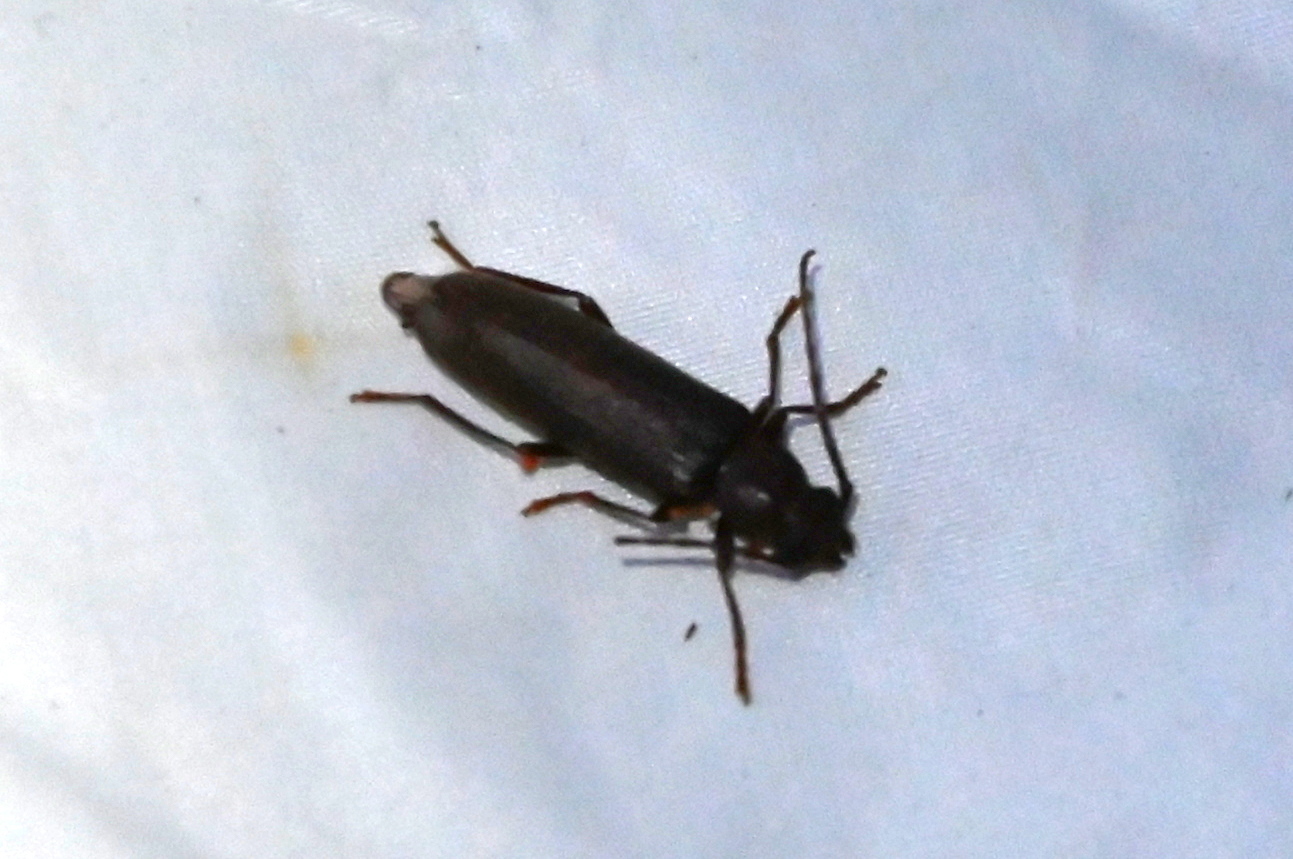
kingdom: Animalia
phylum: Arthropoda
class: Insecta
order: Coleoptera
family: Cerambycidae
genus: Arhopalus
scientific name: Arhopalus rusticus
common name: Rust pine borer
